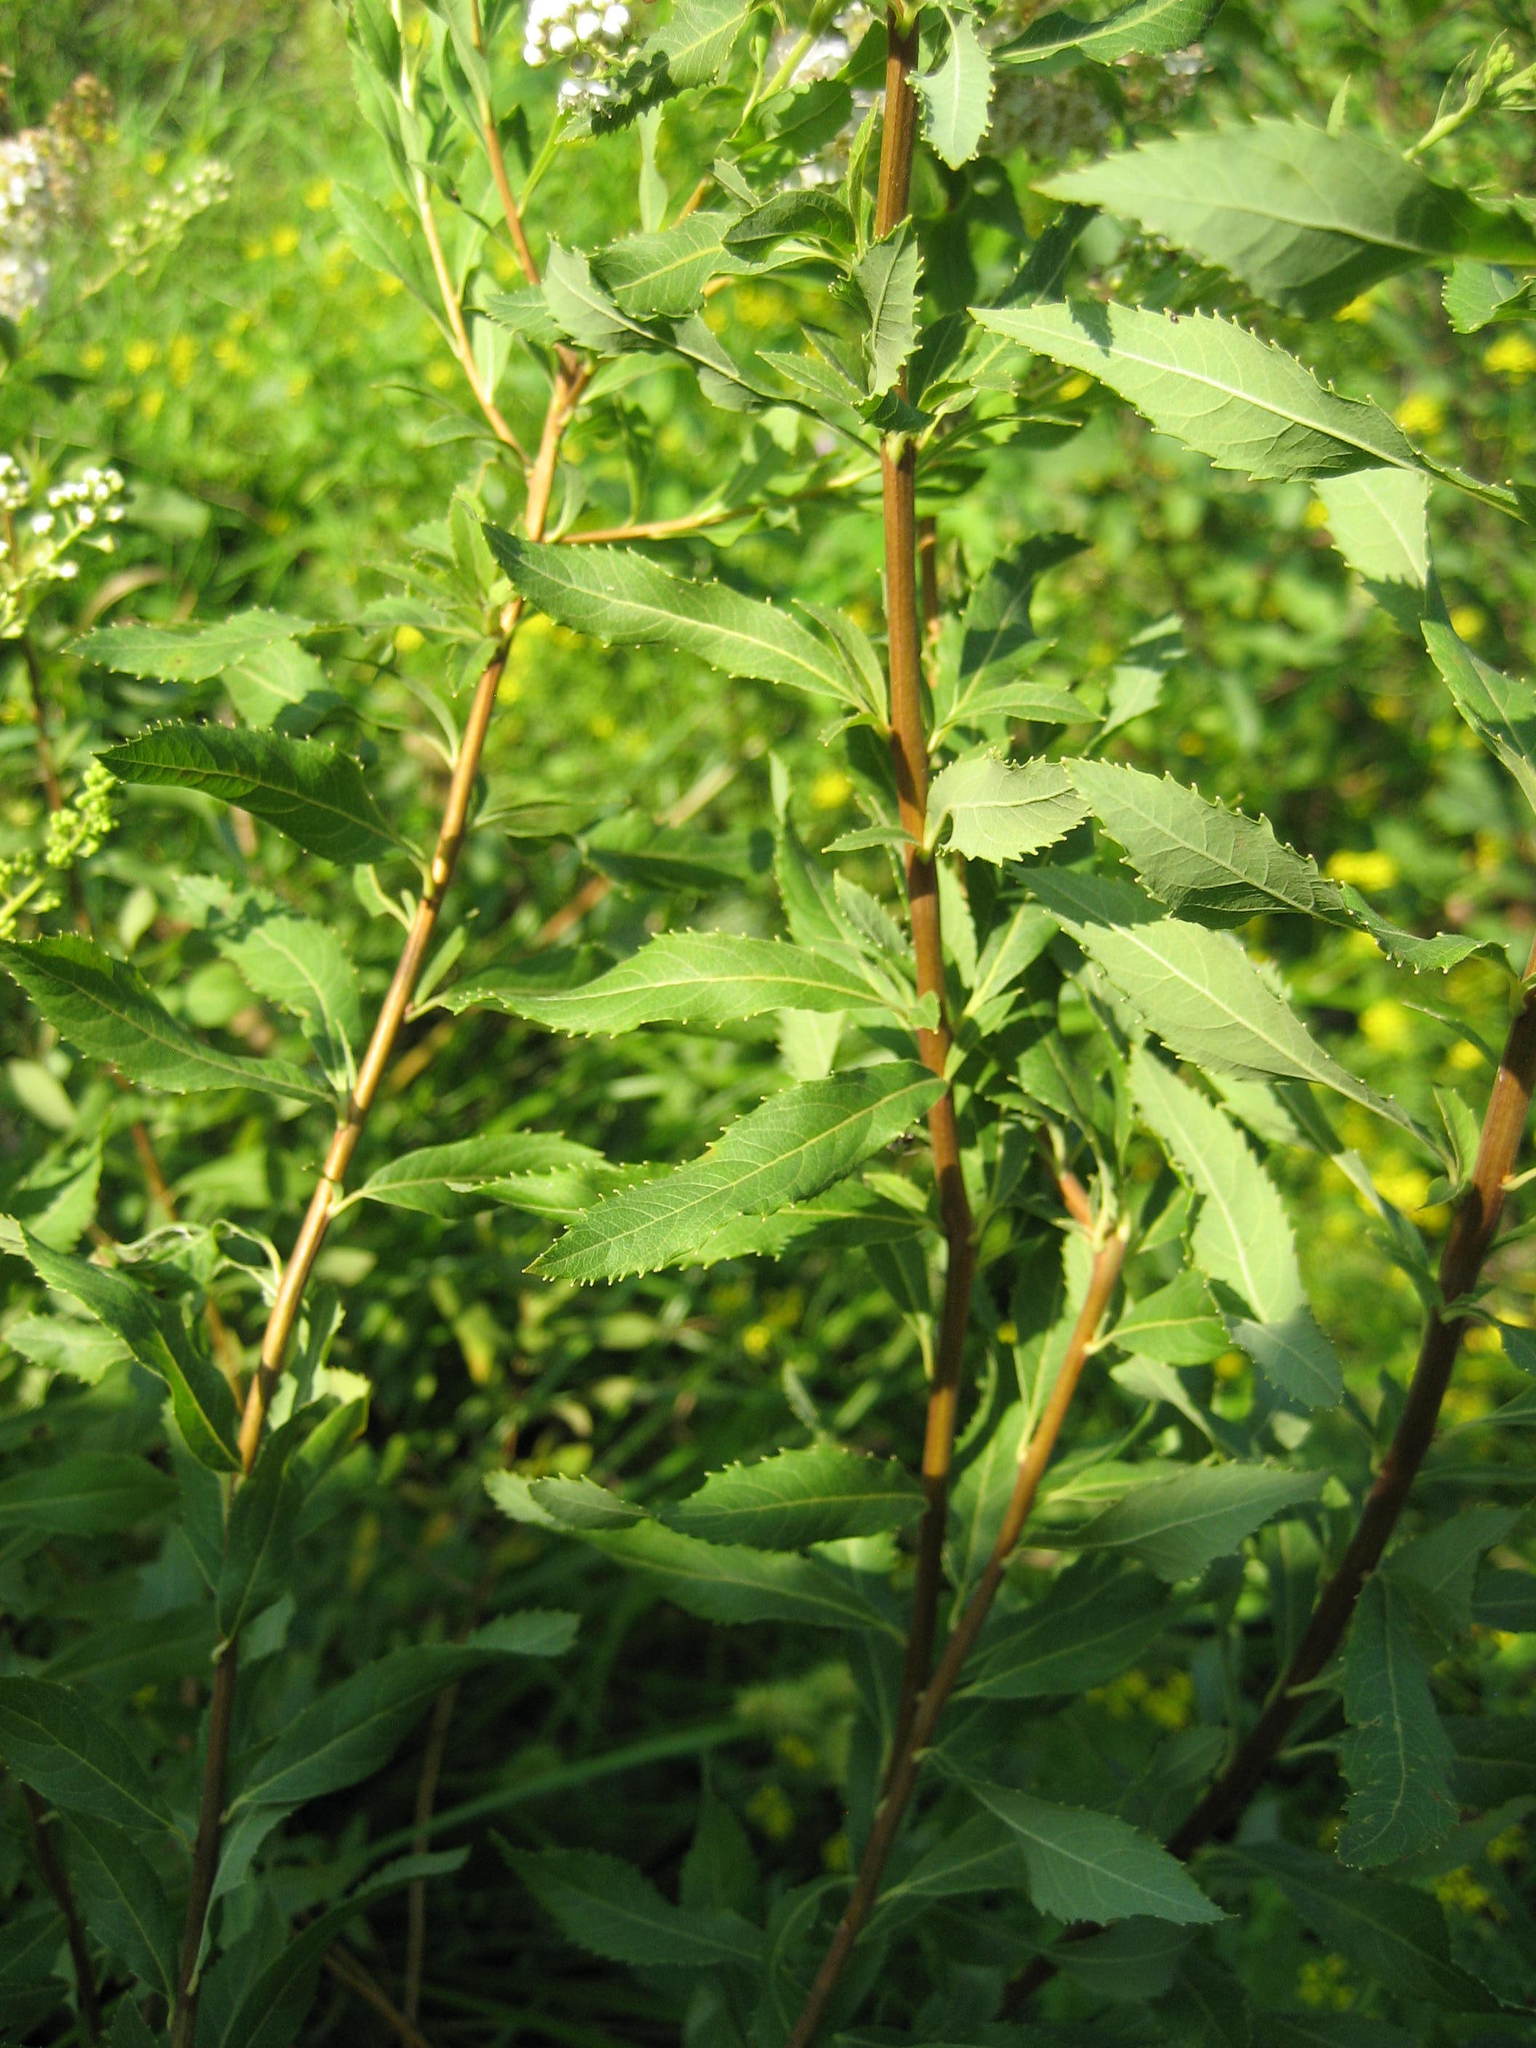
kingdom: Plantae
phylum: Tracheophyta
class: Magnoliopsida
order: Rosales
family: Rosaceae
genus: Spiraea
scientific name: Spiraea alba
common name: Pale bridewort
